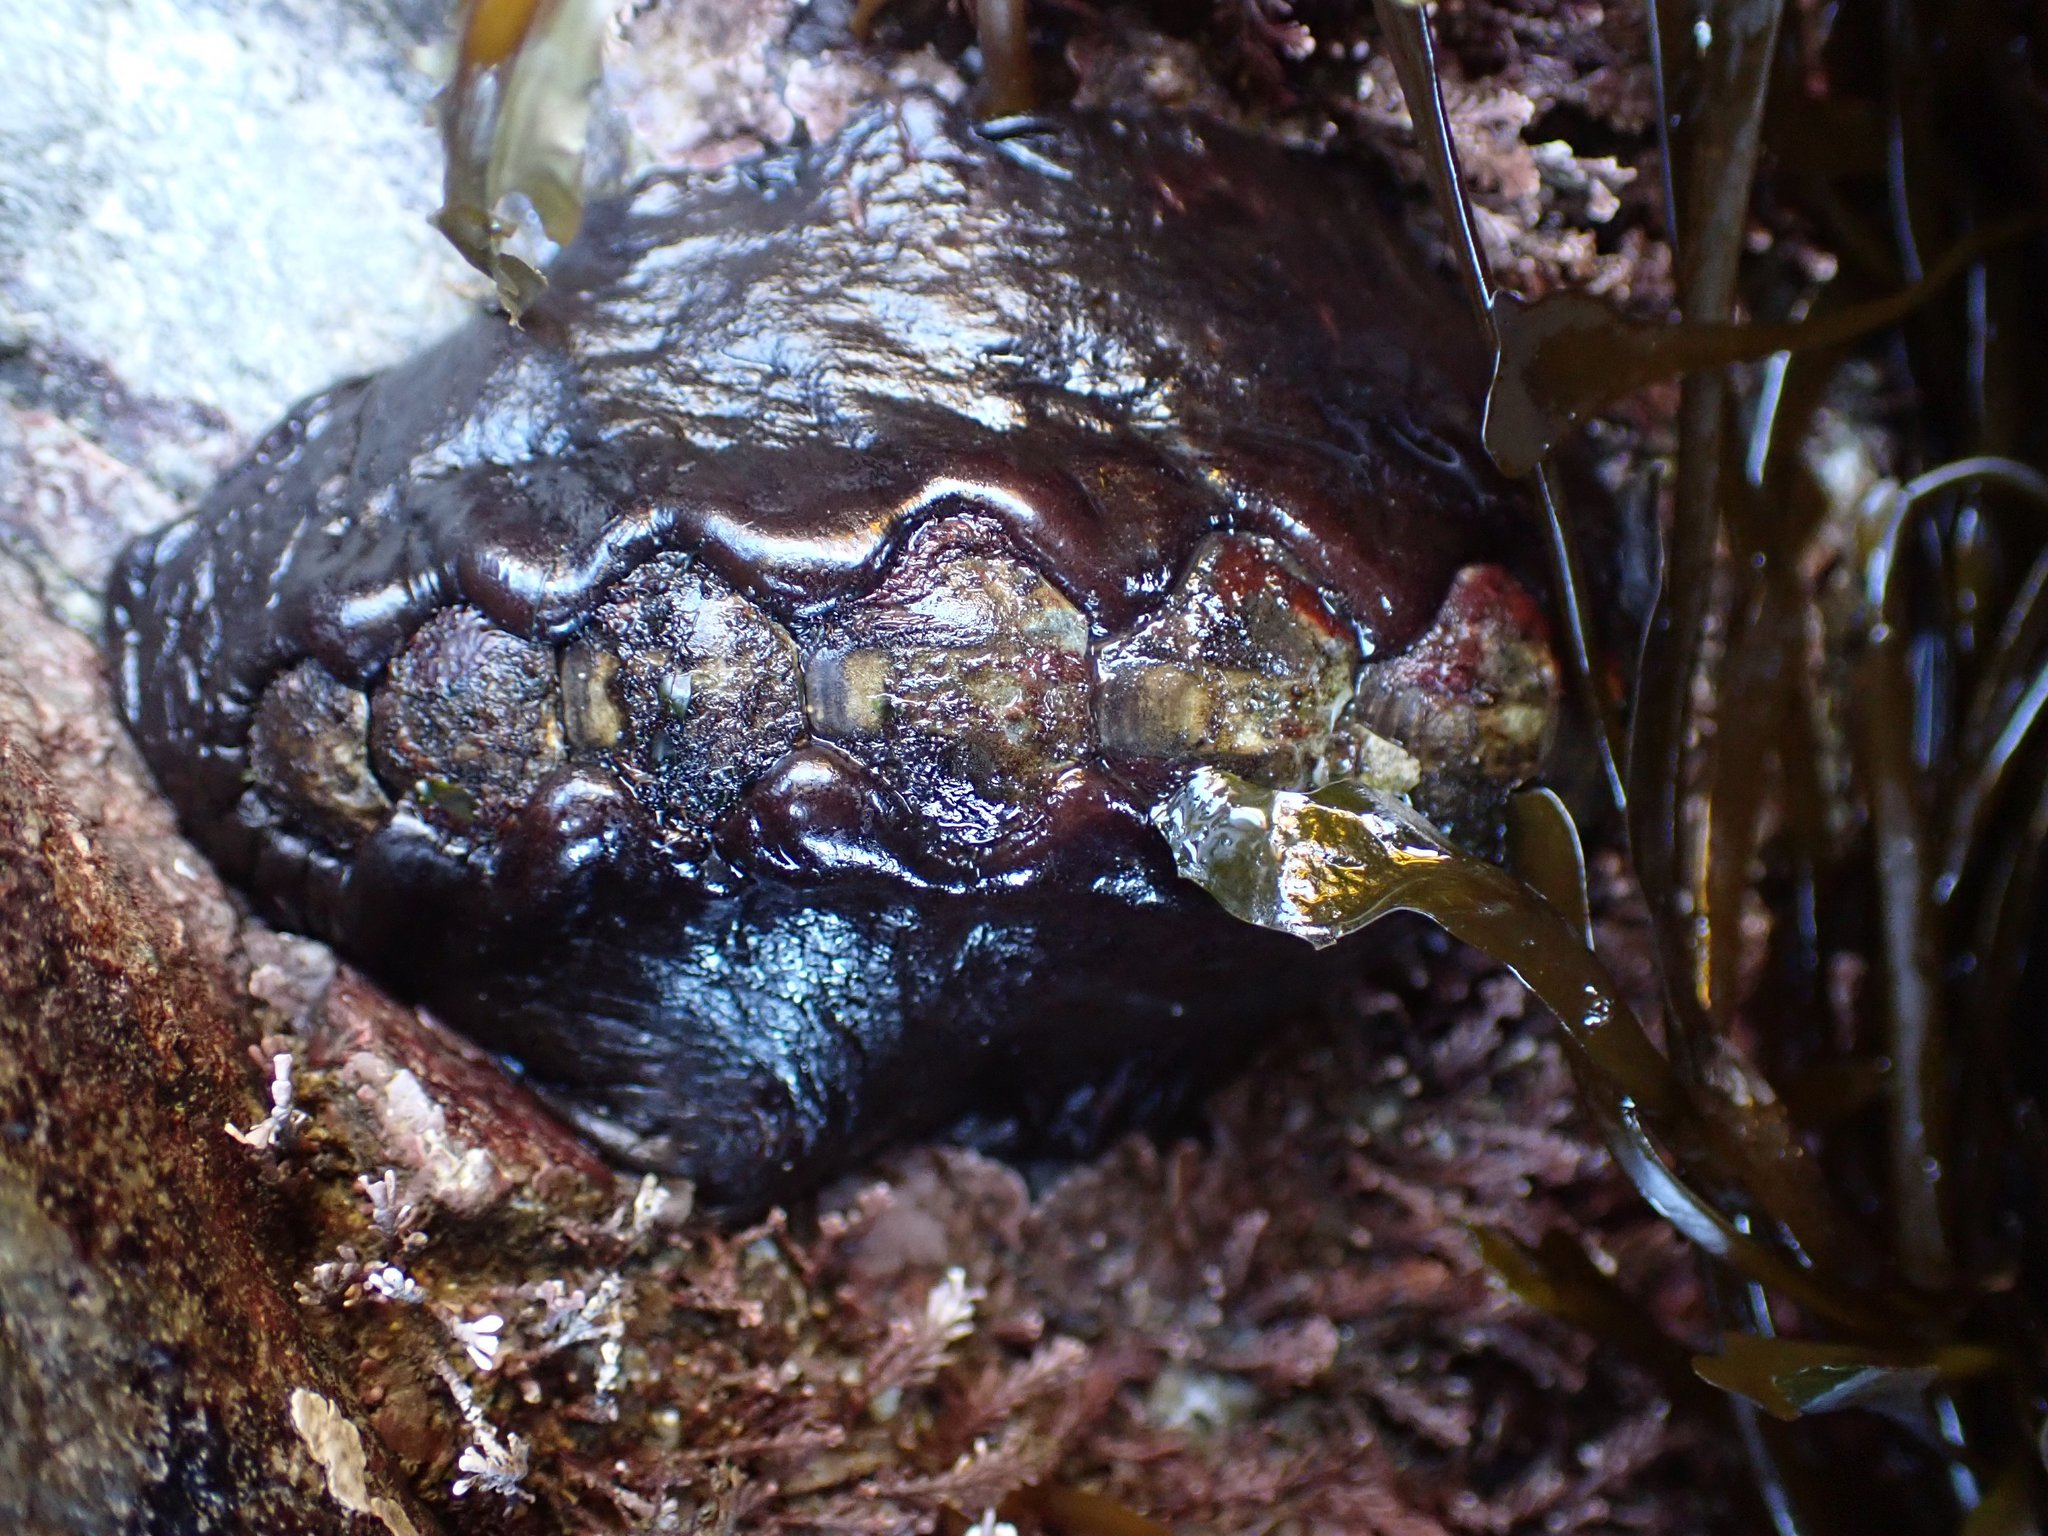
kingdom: Animalia
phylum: Mollusca
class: Polyplacophora
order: Chitonida
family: Mopaliidae
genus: Katharina
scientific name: Katharina tunicata
